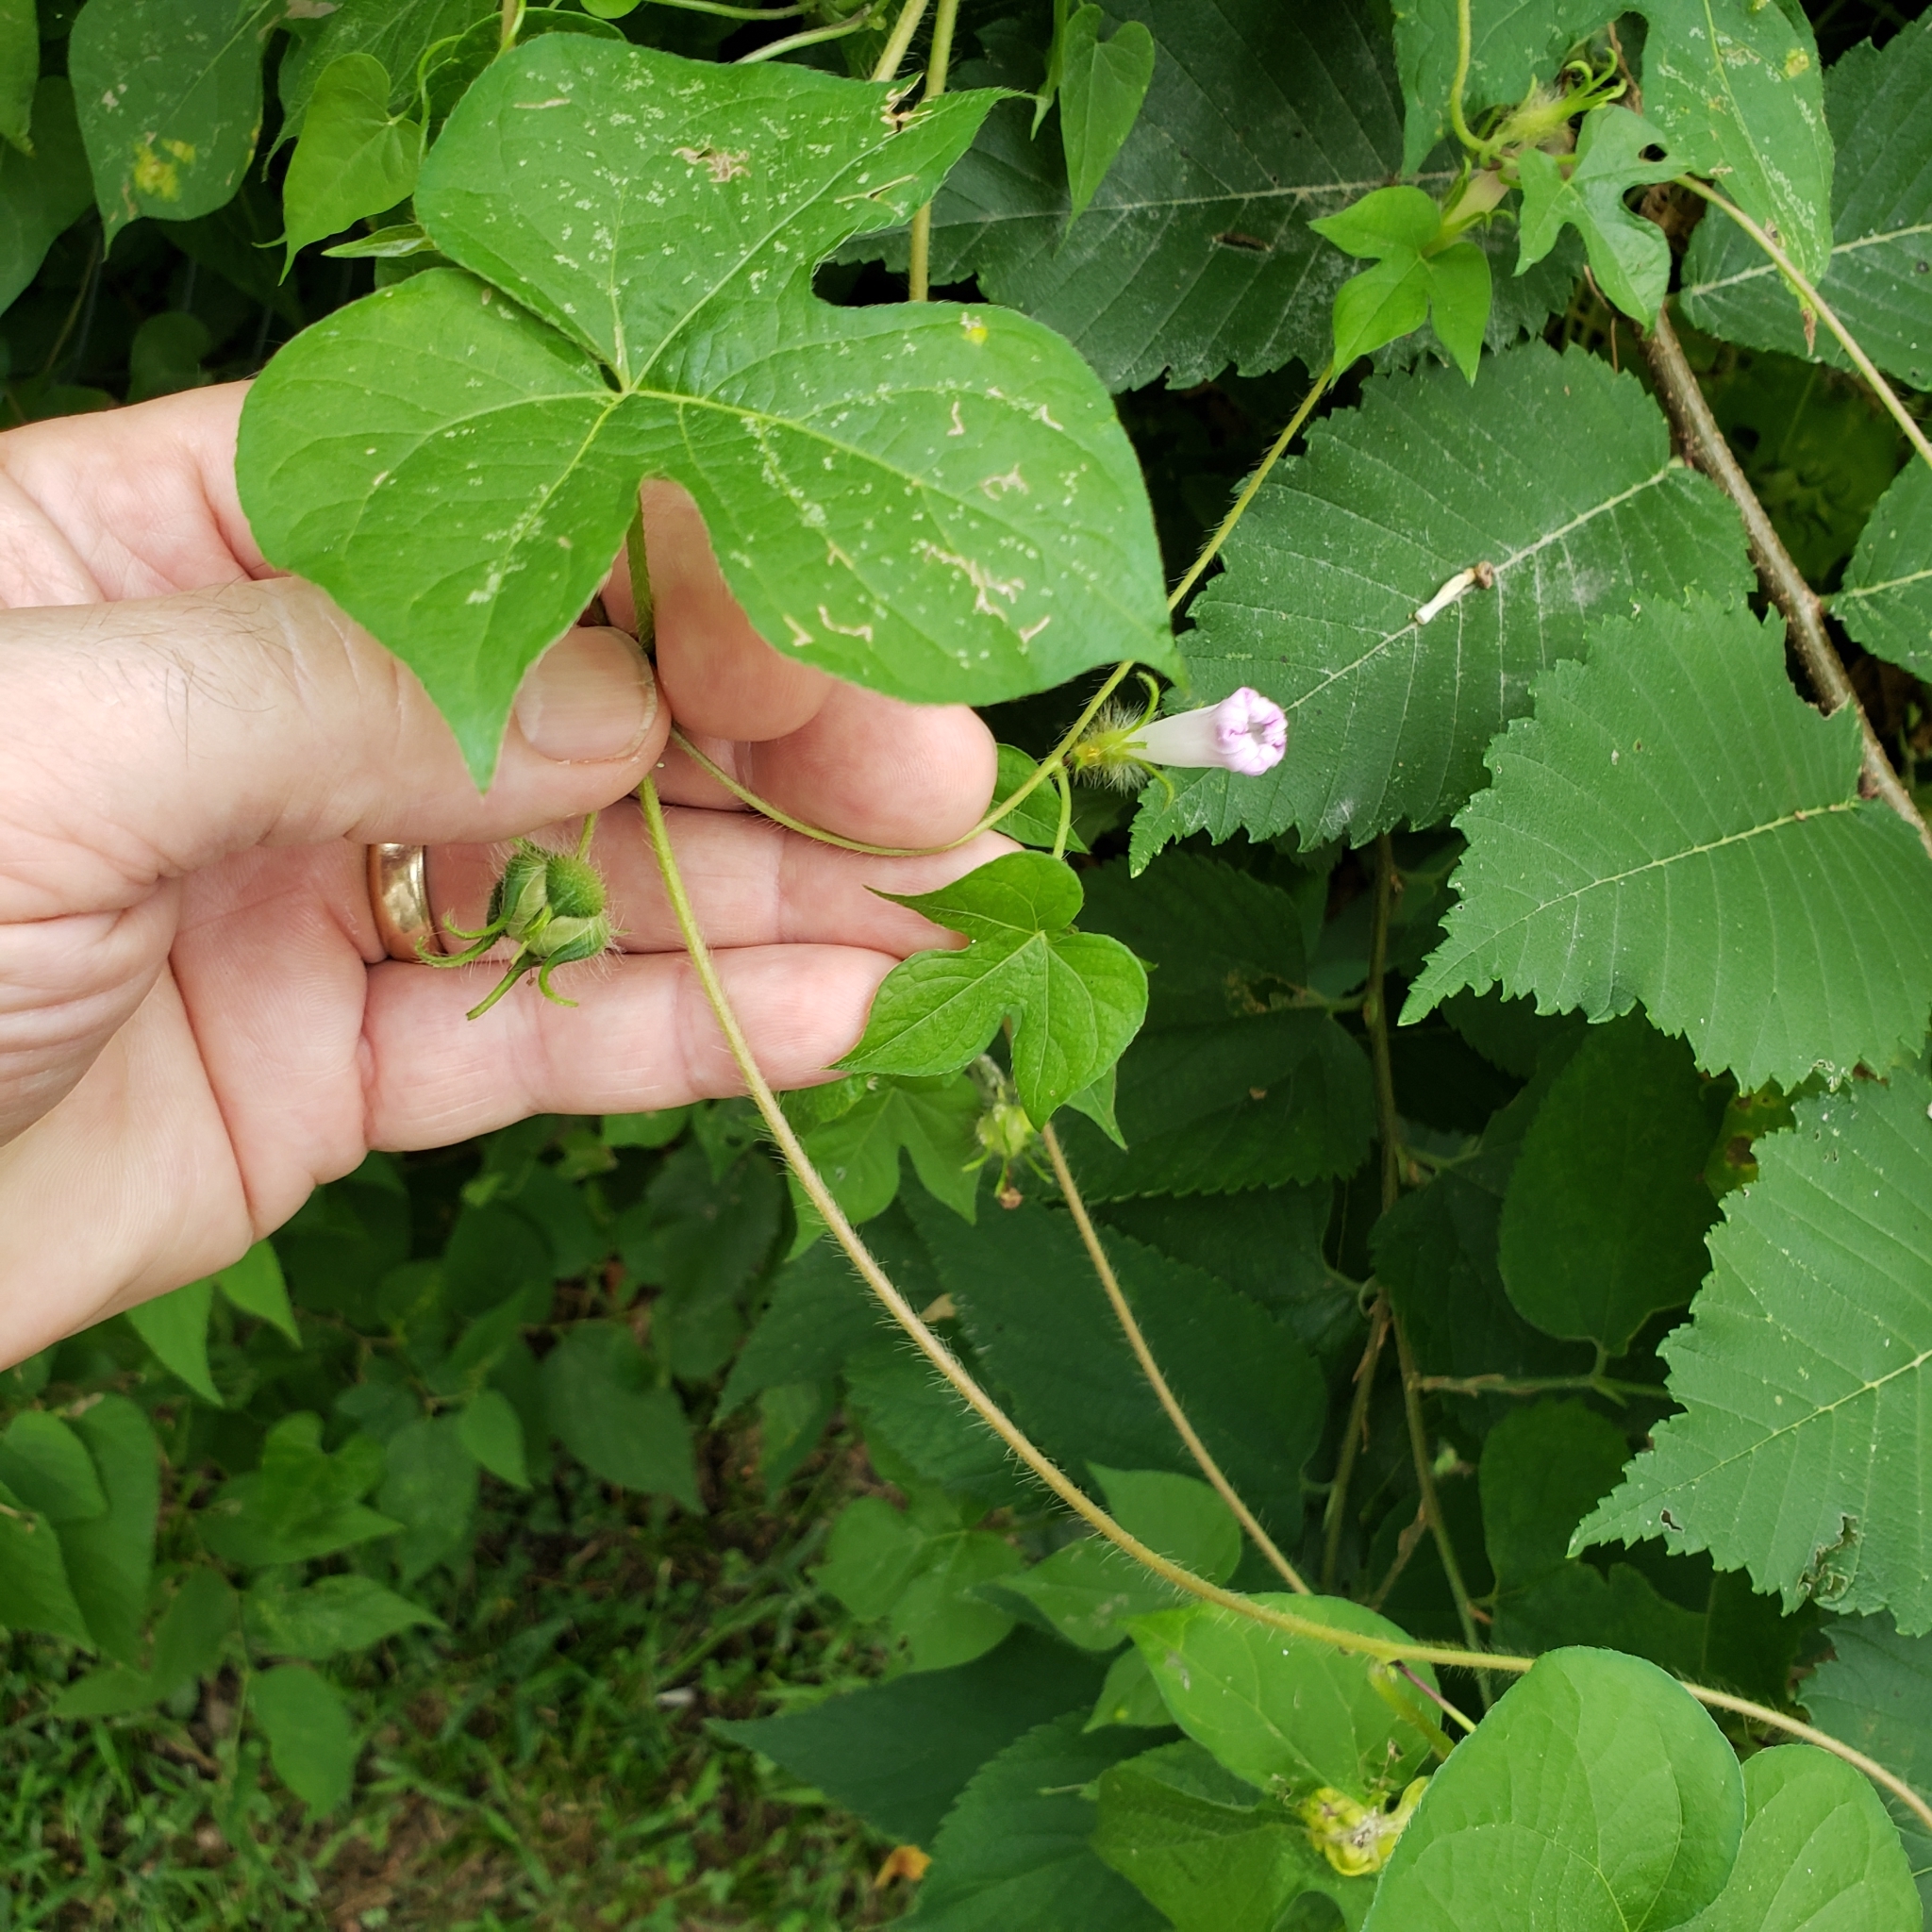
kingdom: Plantae
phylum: Tracheophyta
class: Magnoliopsida
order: Solanales
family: Convolvulaceae
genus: Ipomoea
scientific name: Ipomoea hederacea
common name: Ivy-leaved morning-glory
